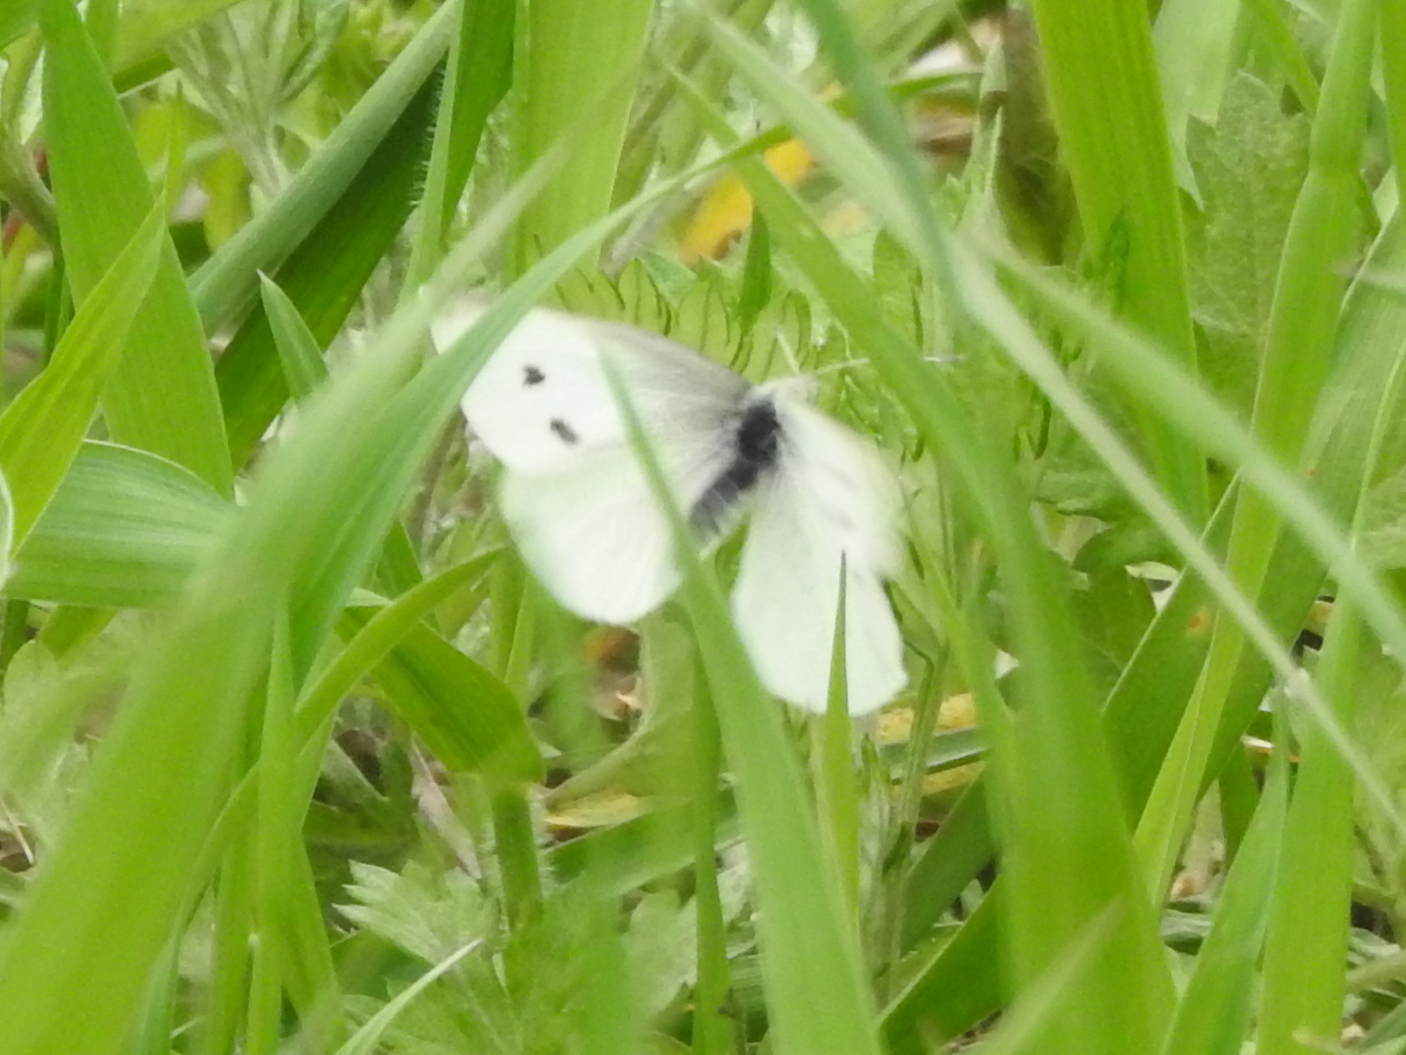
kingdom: Animalia
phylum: Arthropoda
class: Insecta
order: Lepidoptera
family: Pieridae
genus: Pieris
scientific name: Pieris rapae
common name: Small white
